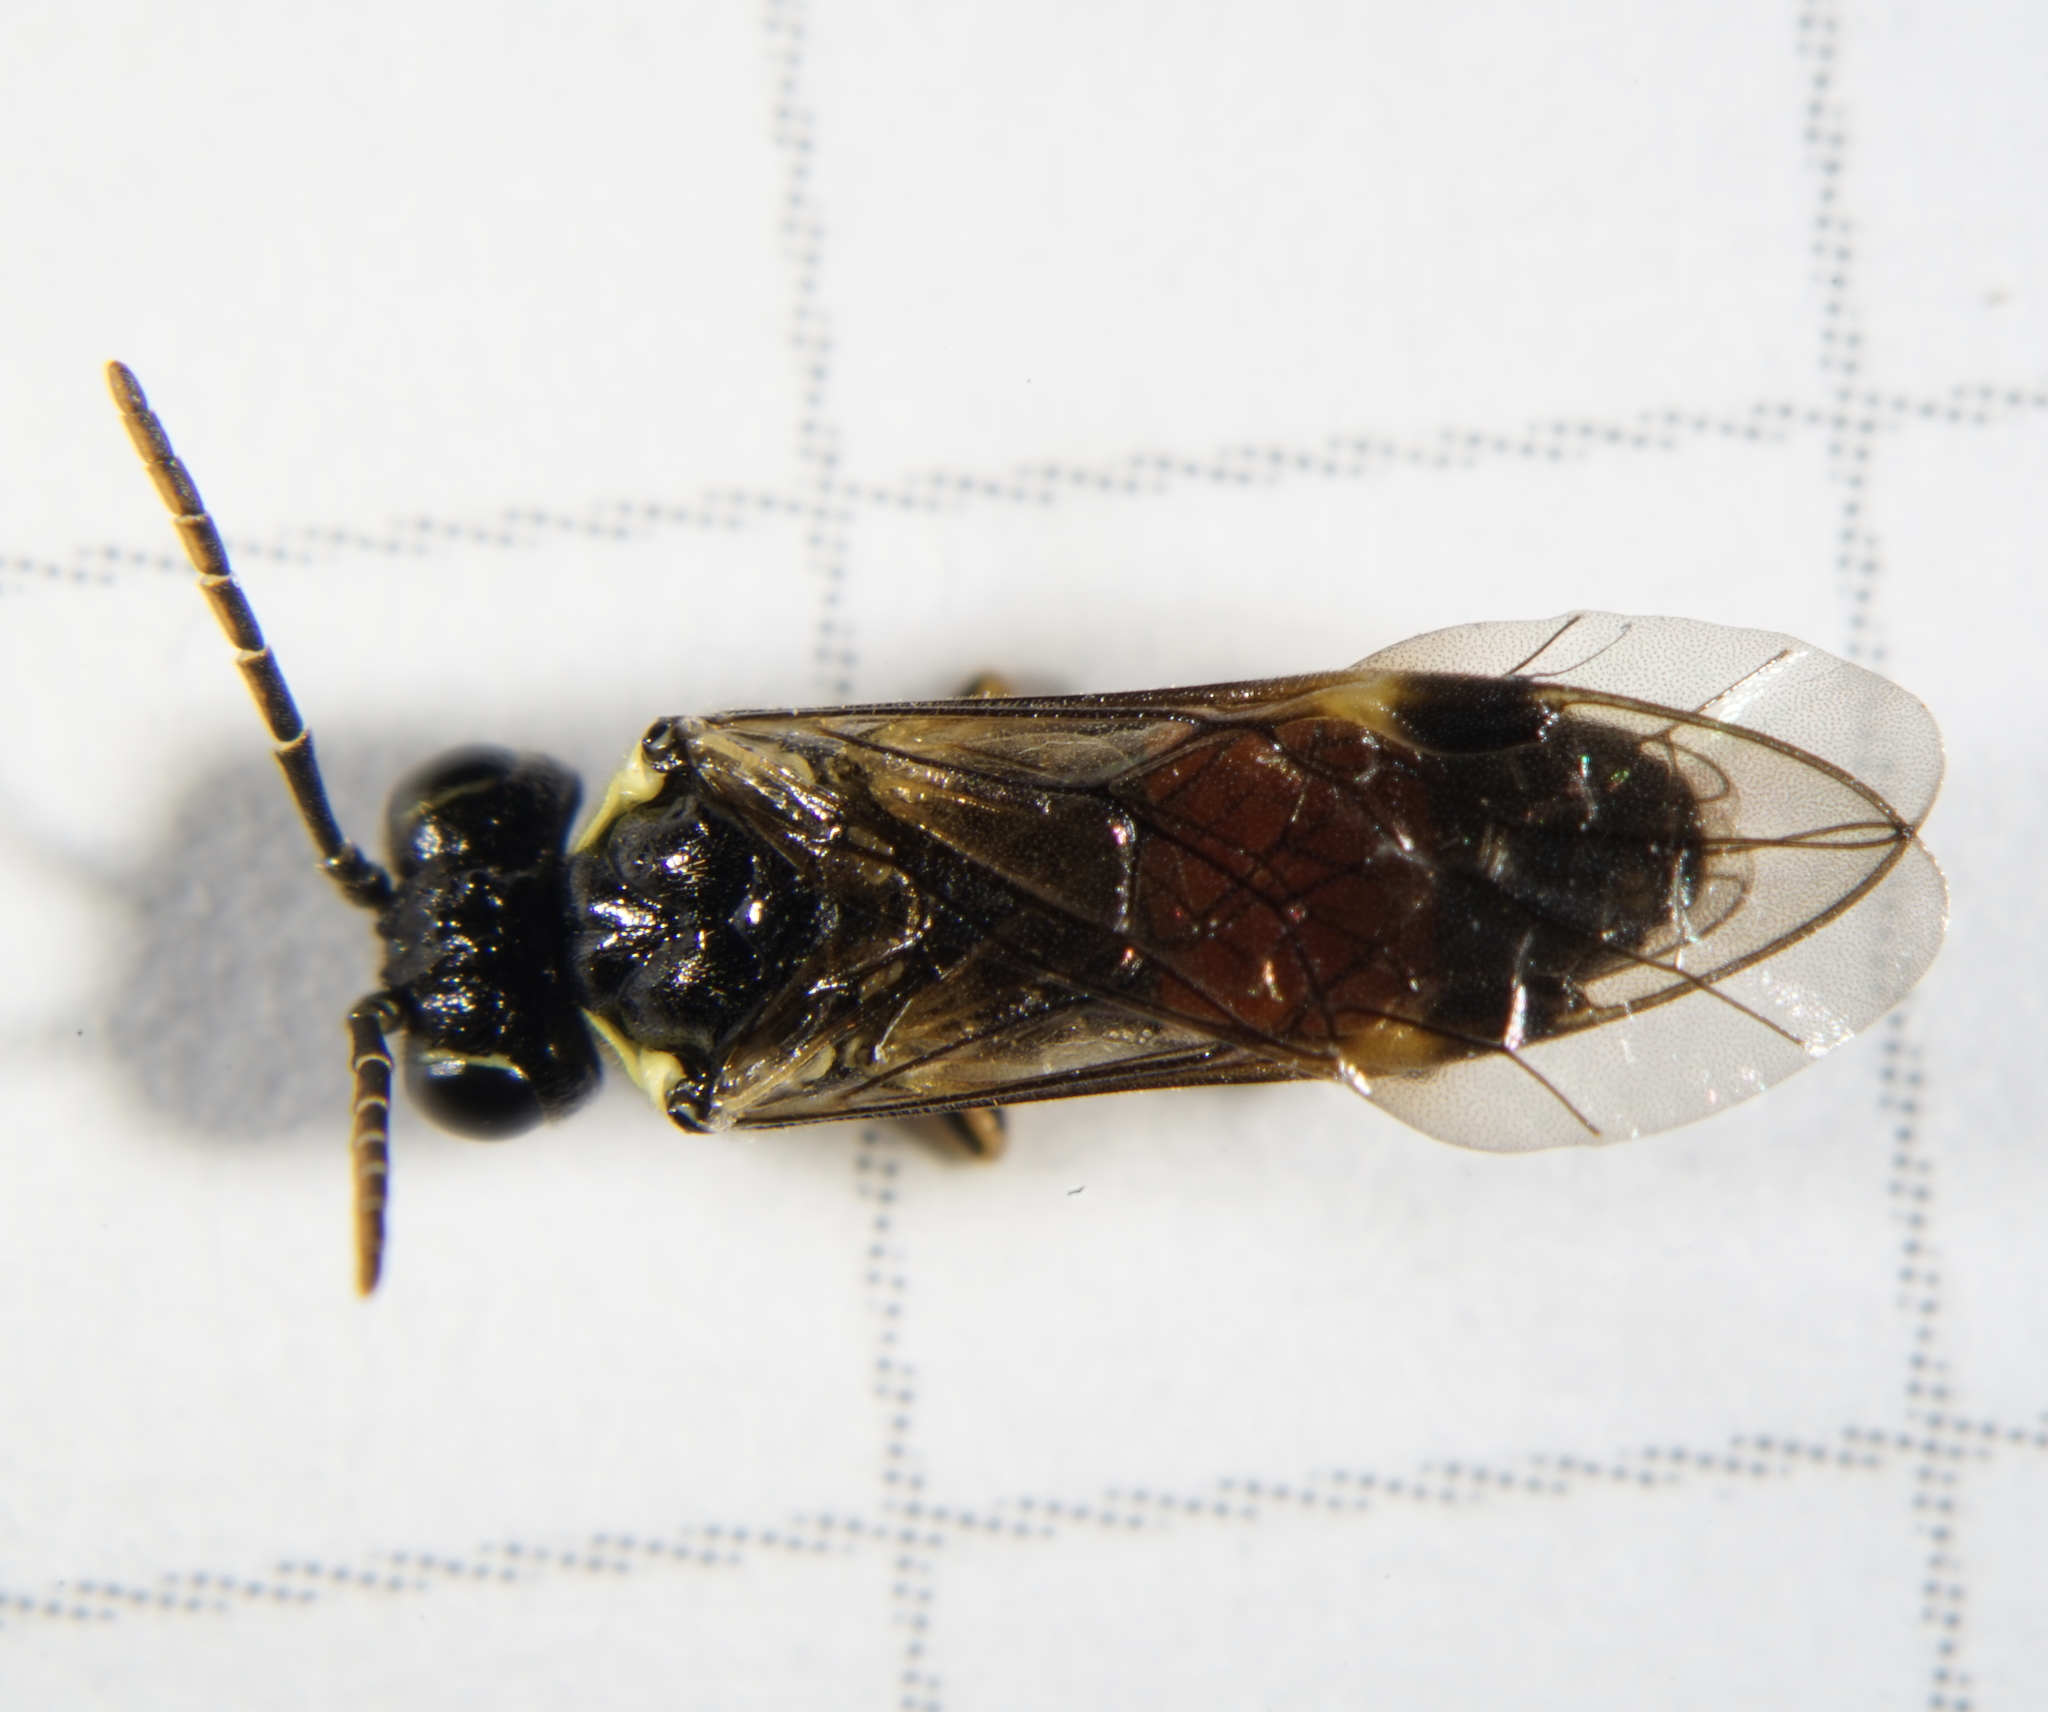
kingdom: Animalia
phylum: Arthropoda
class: Insecta
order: Hymenoptera
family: Tenthredinidae
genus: Aglaostigma
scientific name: Aglaostigma aucupariae
